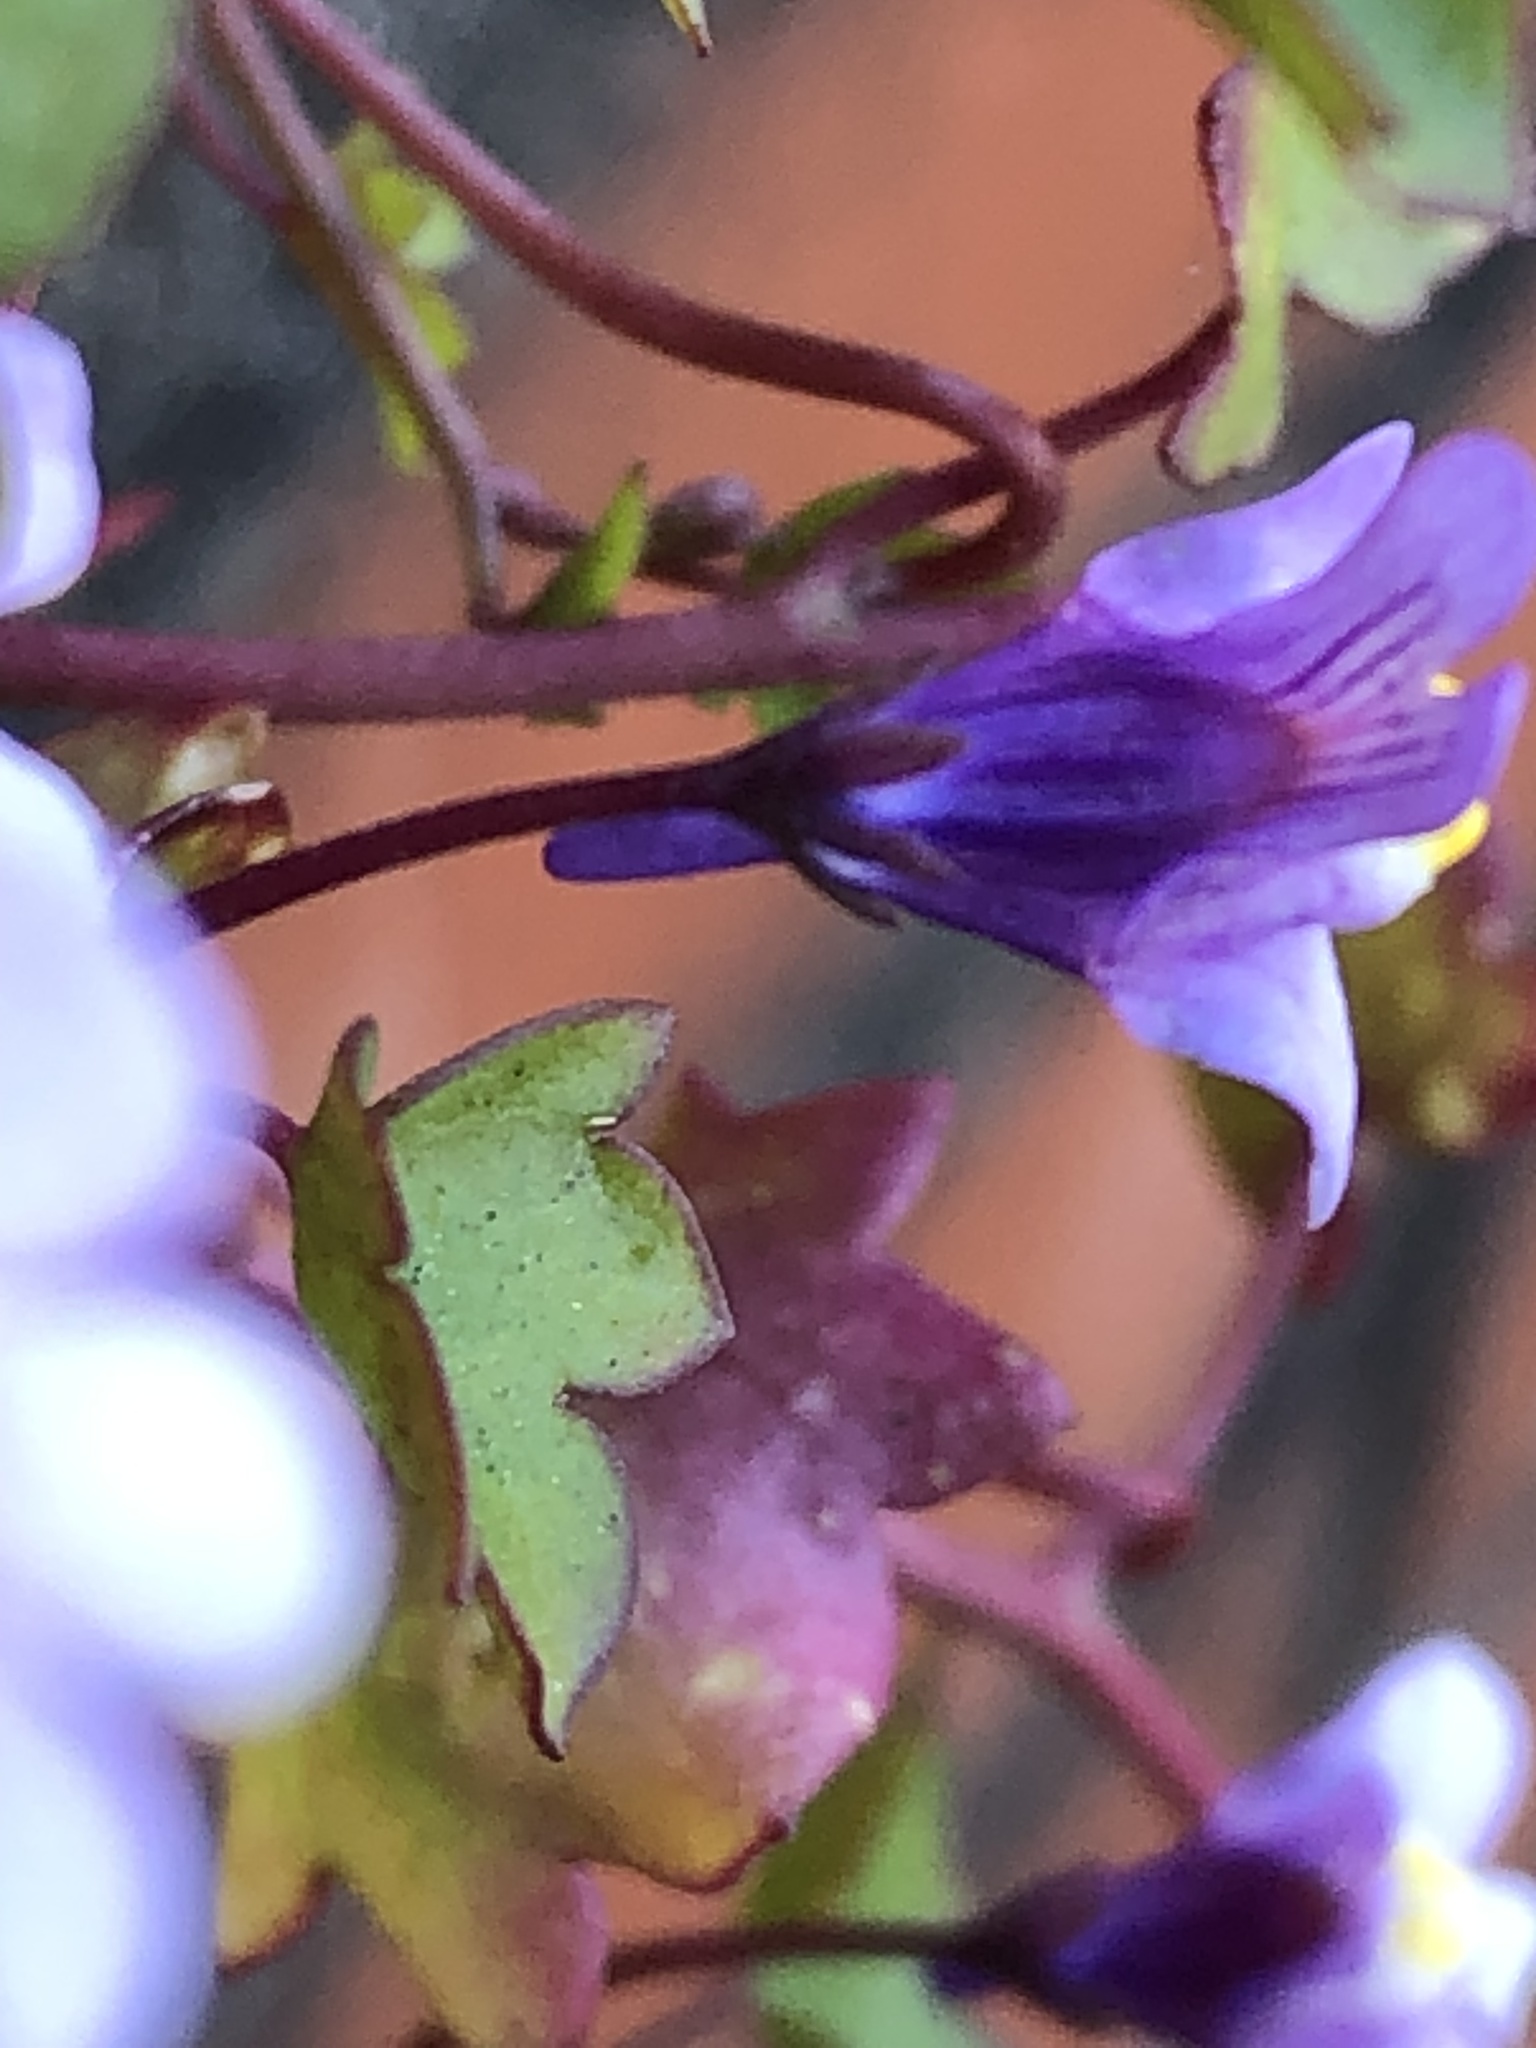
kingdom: Plantae
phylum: Tracheophyta
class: Magnoliopsida
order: Lamiales
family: Plantaginaceae
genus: Cymbalaria
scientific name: Cymbalaria muralis
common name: Ivy-leaved toadflax
